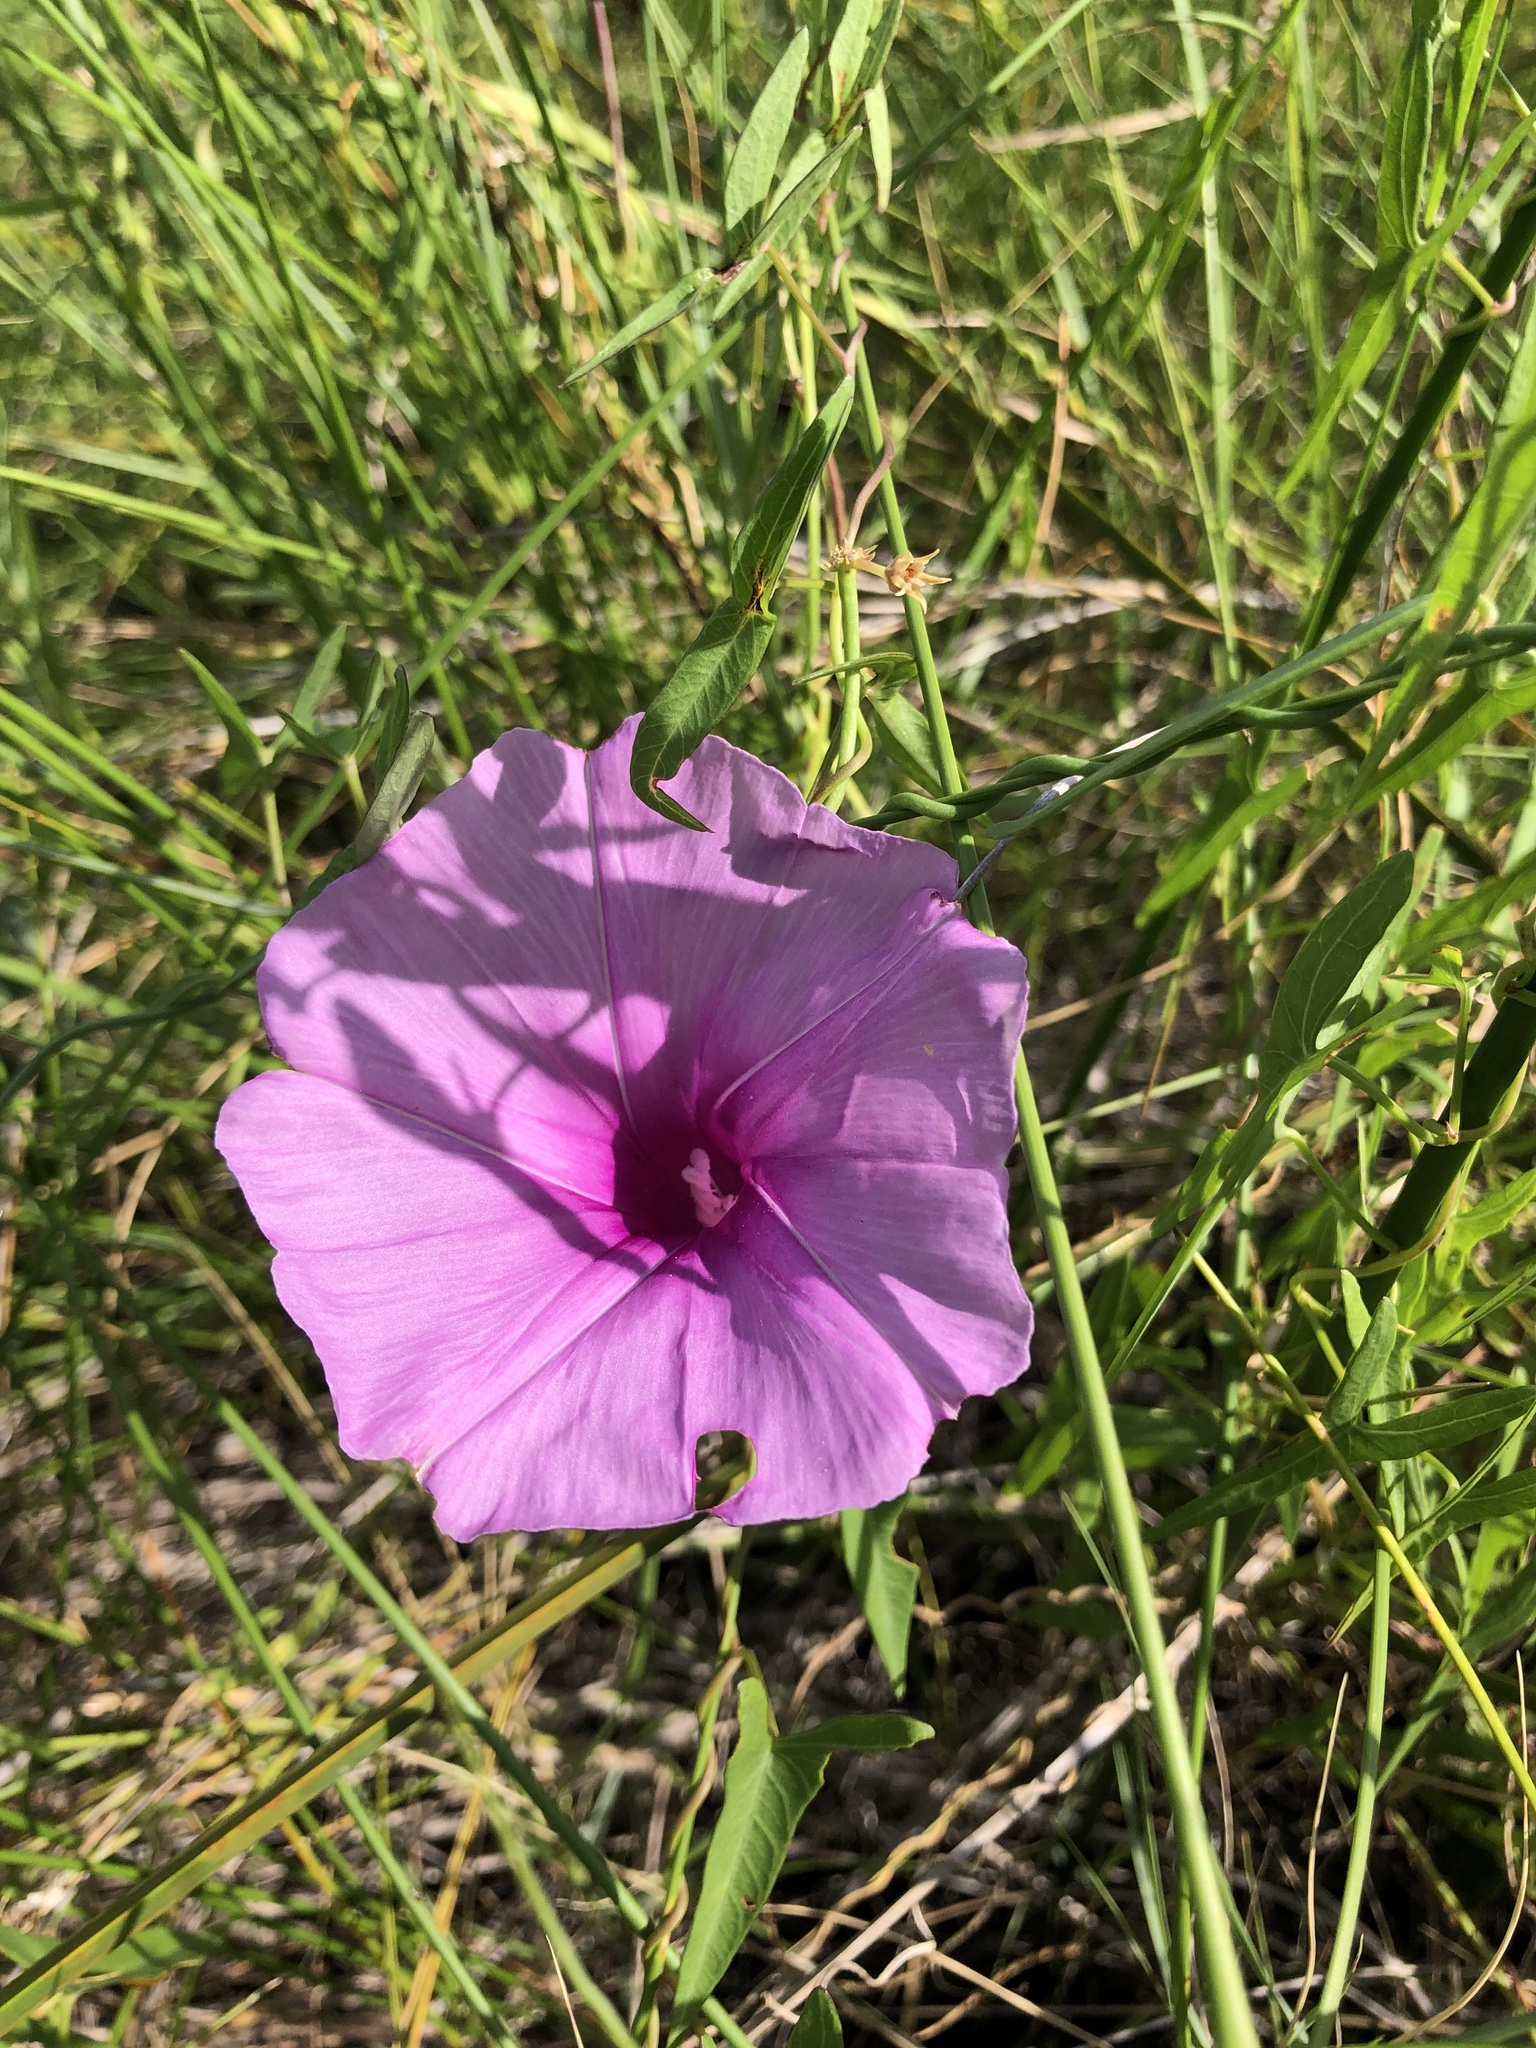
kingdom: Plantae
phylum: Tracheophyta
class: Magnoliopsida
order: Solanales
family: Convolvulaceae
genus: Ipomoea
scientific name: Ipomoea sagittata
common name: Saltmarsh morning glory
